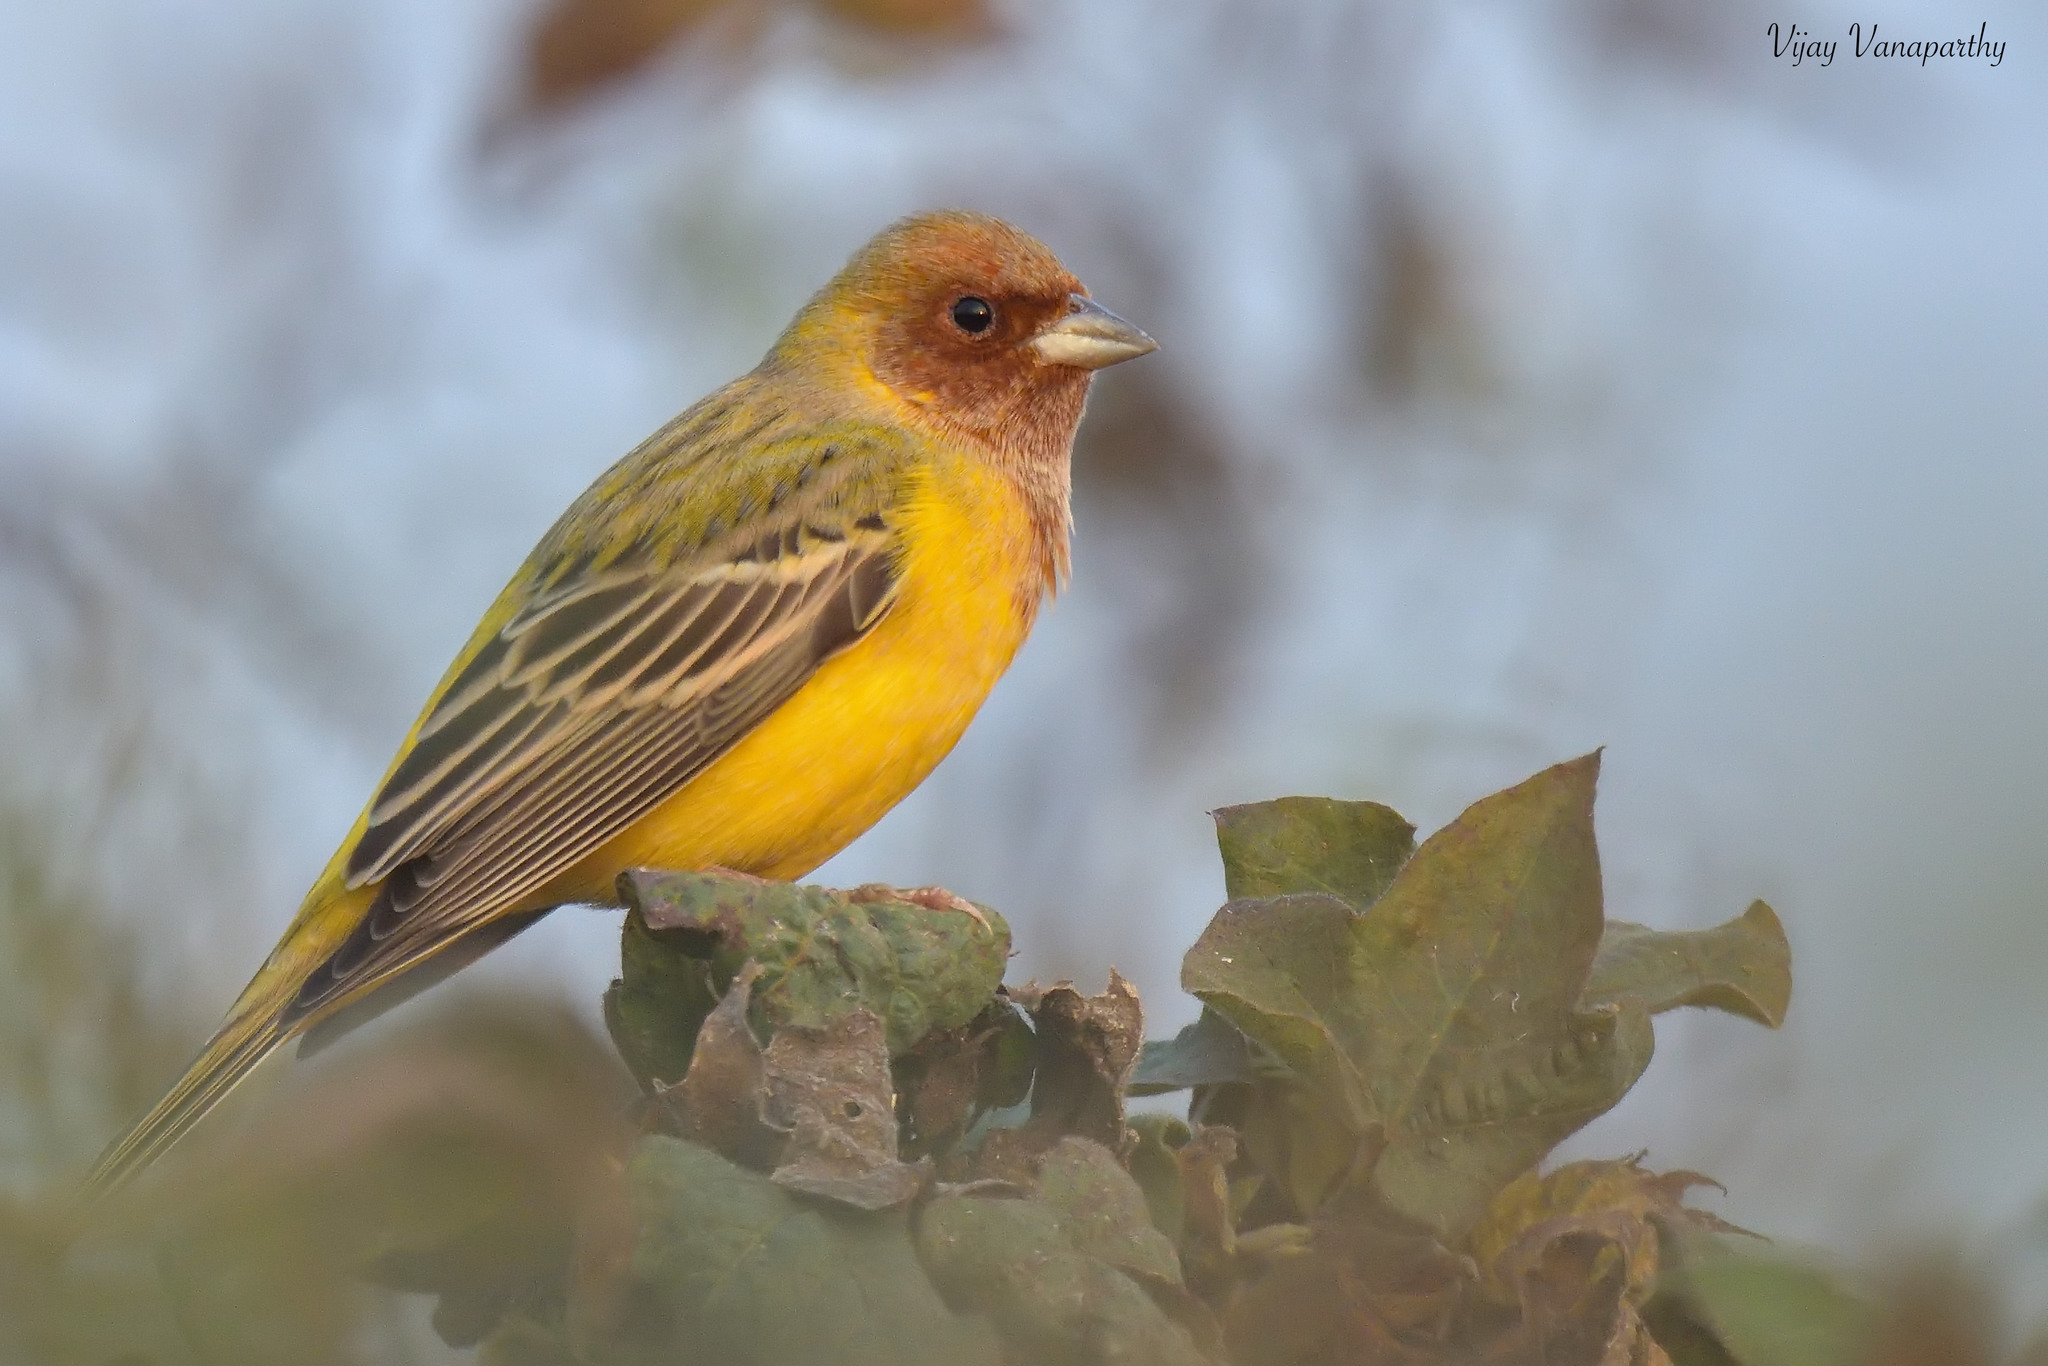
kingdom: Animalia
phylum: Chordata
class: Aves
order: Passeriformes
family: Emberizidae
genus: Emberiza
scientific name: Emberiza bruniceps
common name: Red-headed bunting
